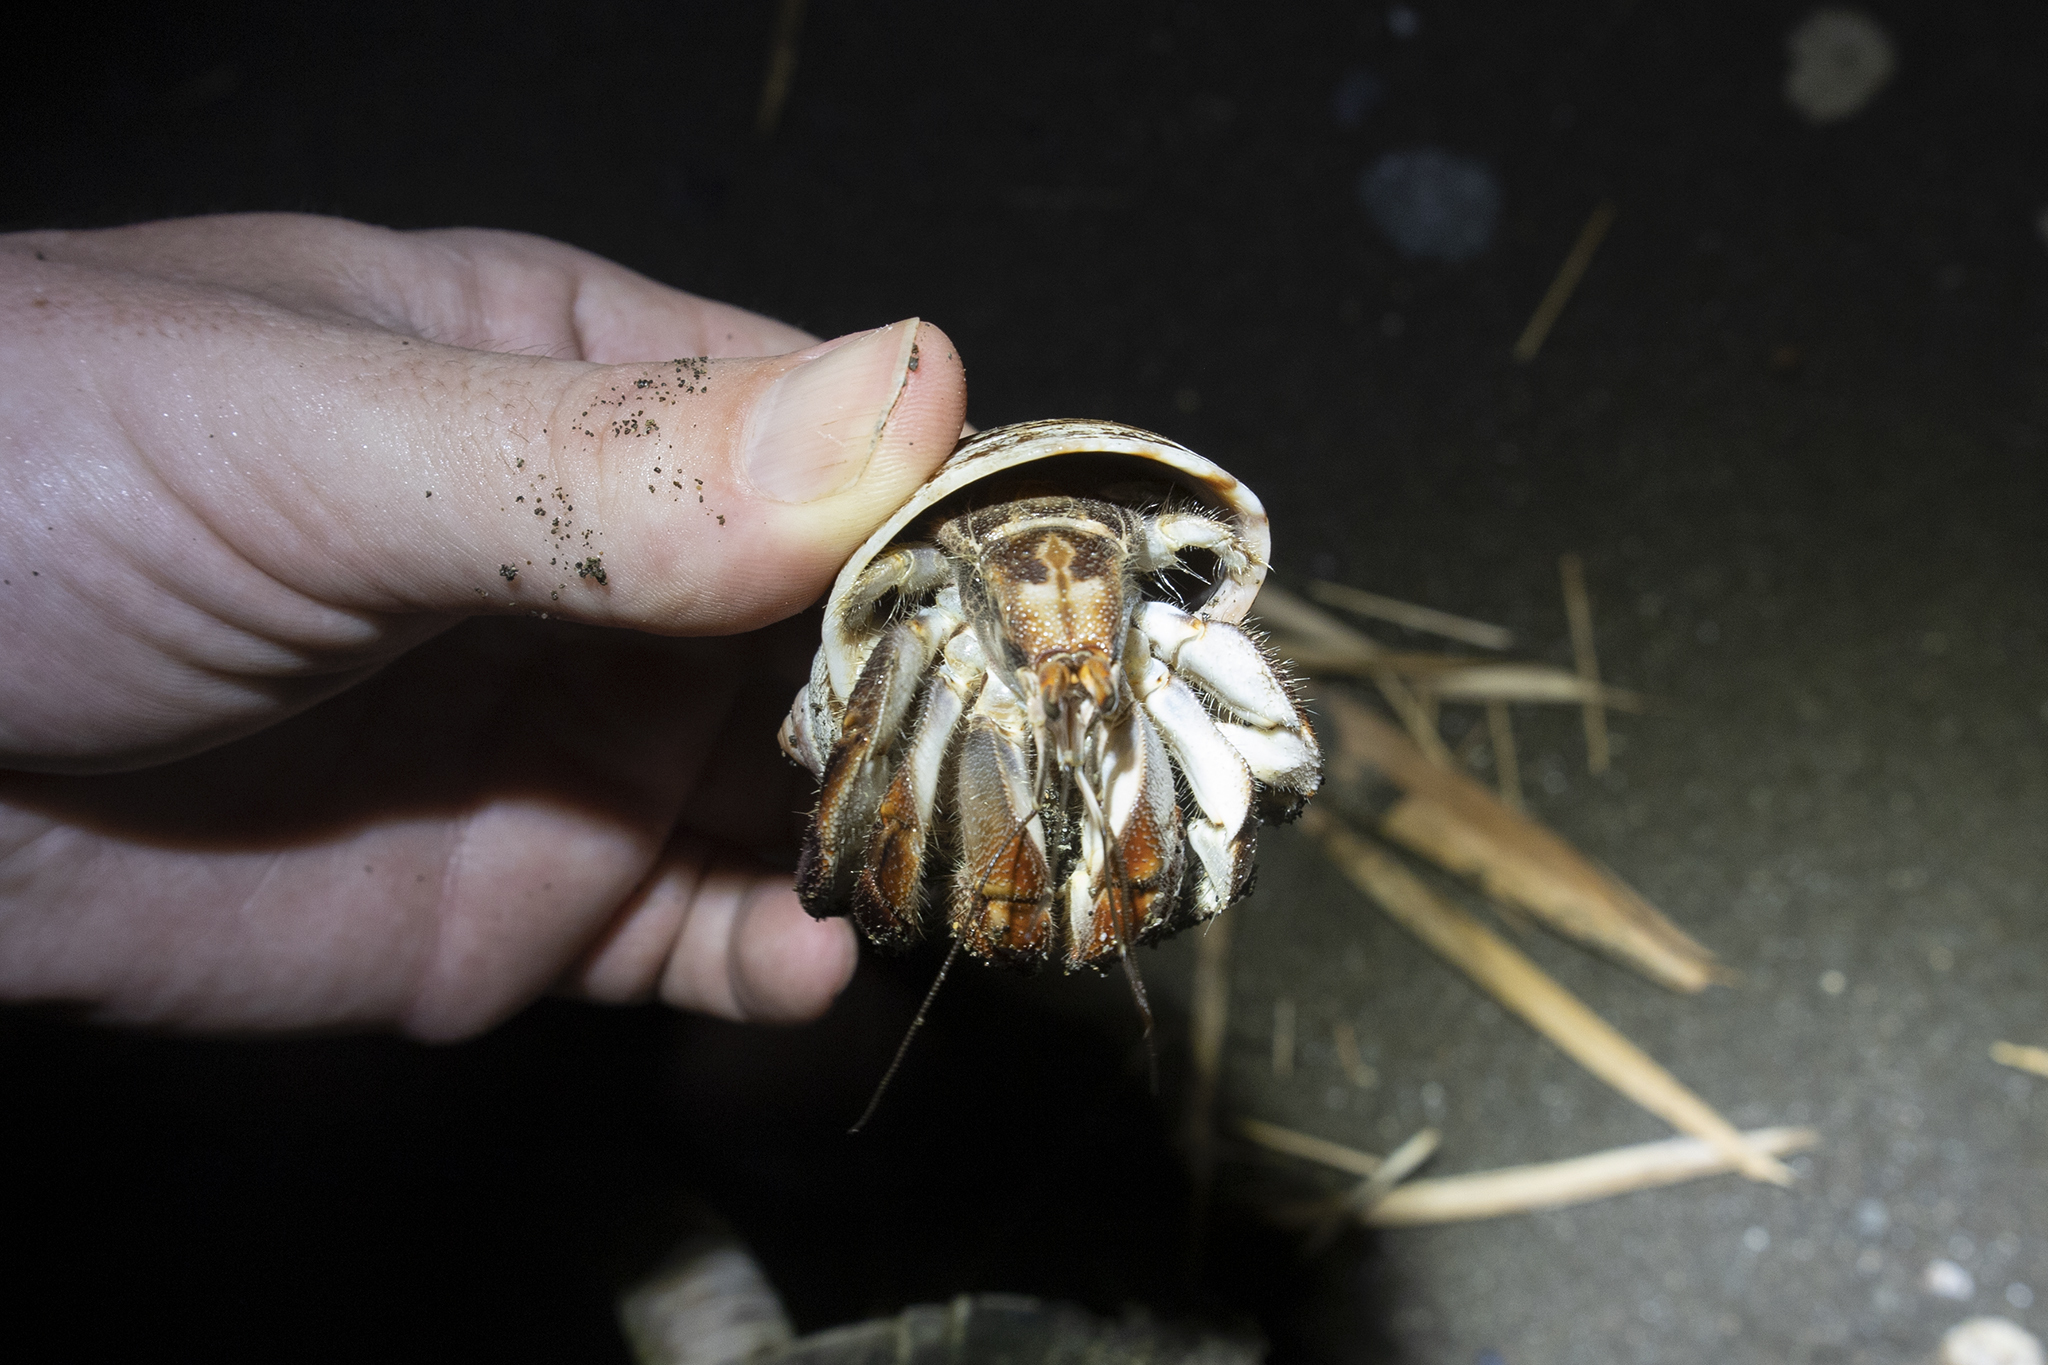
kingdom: Animalia
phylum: Arthropoda
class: Malacostraca
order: Decapoda
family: Coenobitidae
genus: Coenobita
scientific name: Coenobita compressus
